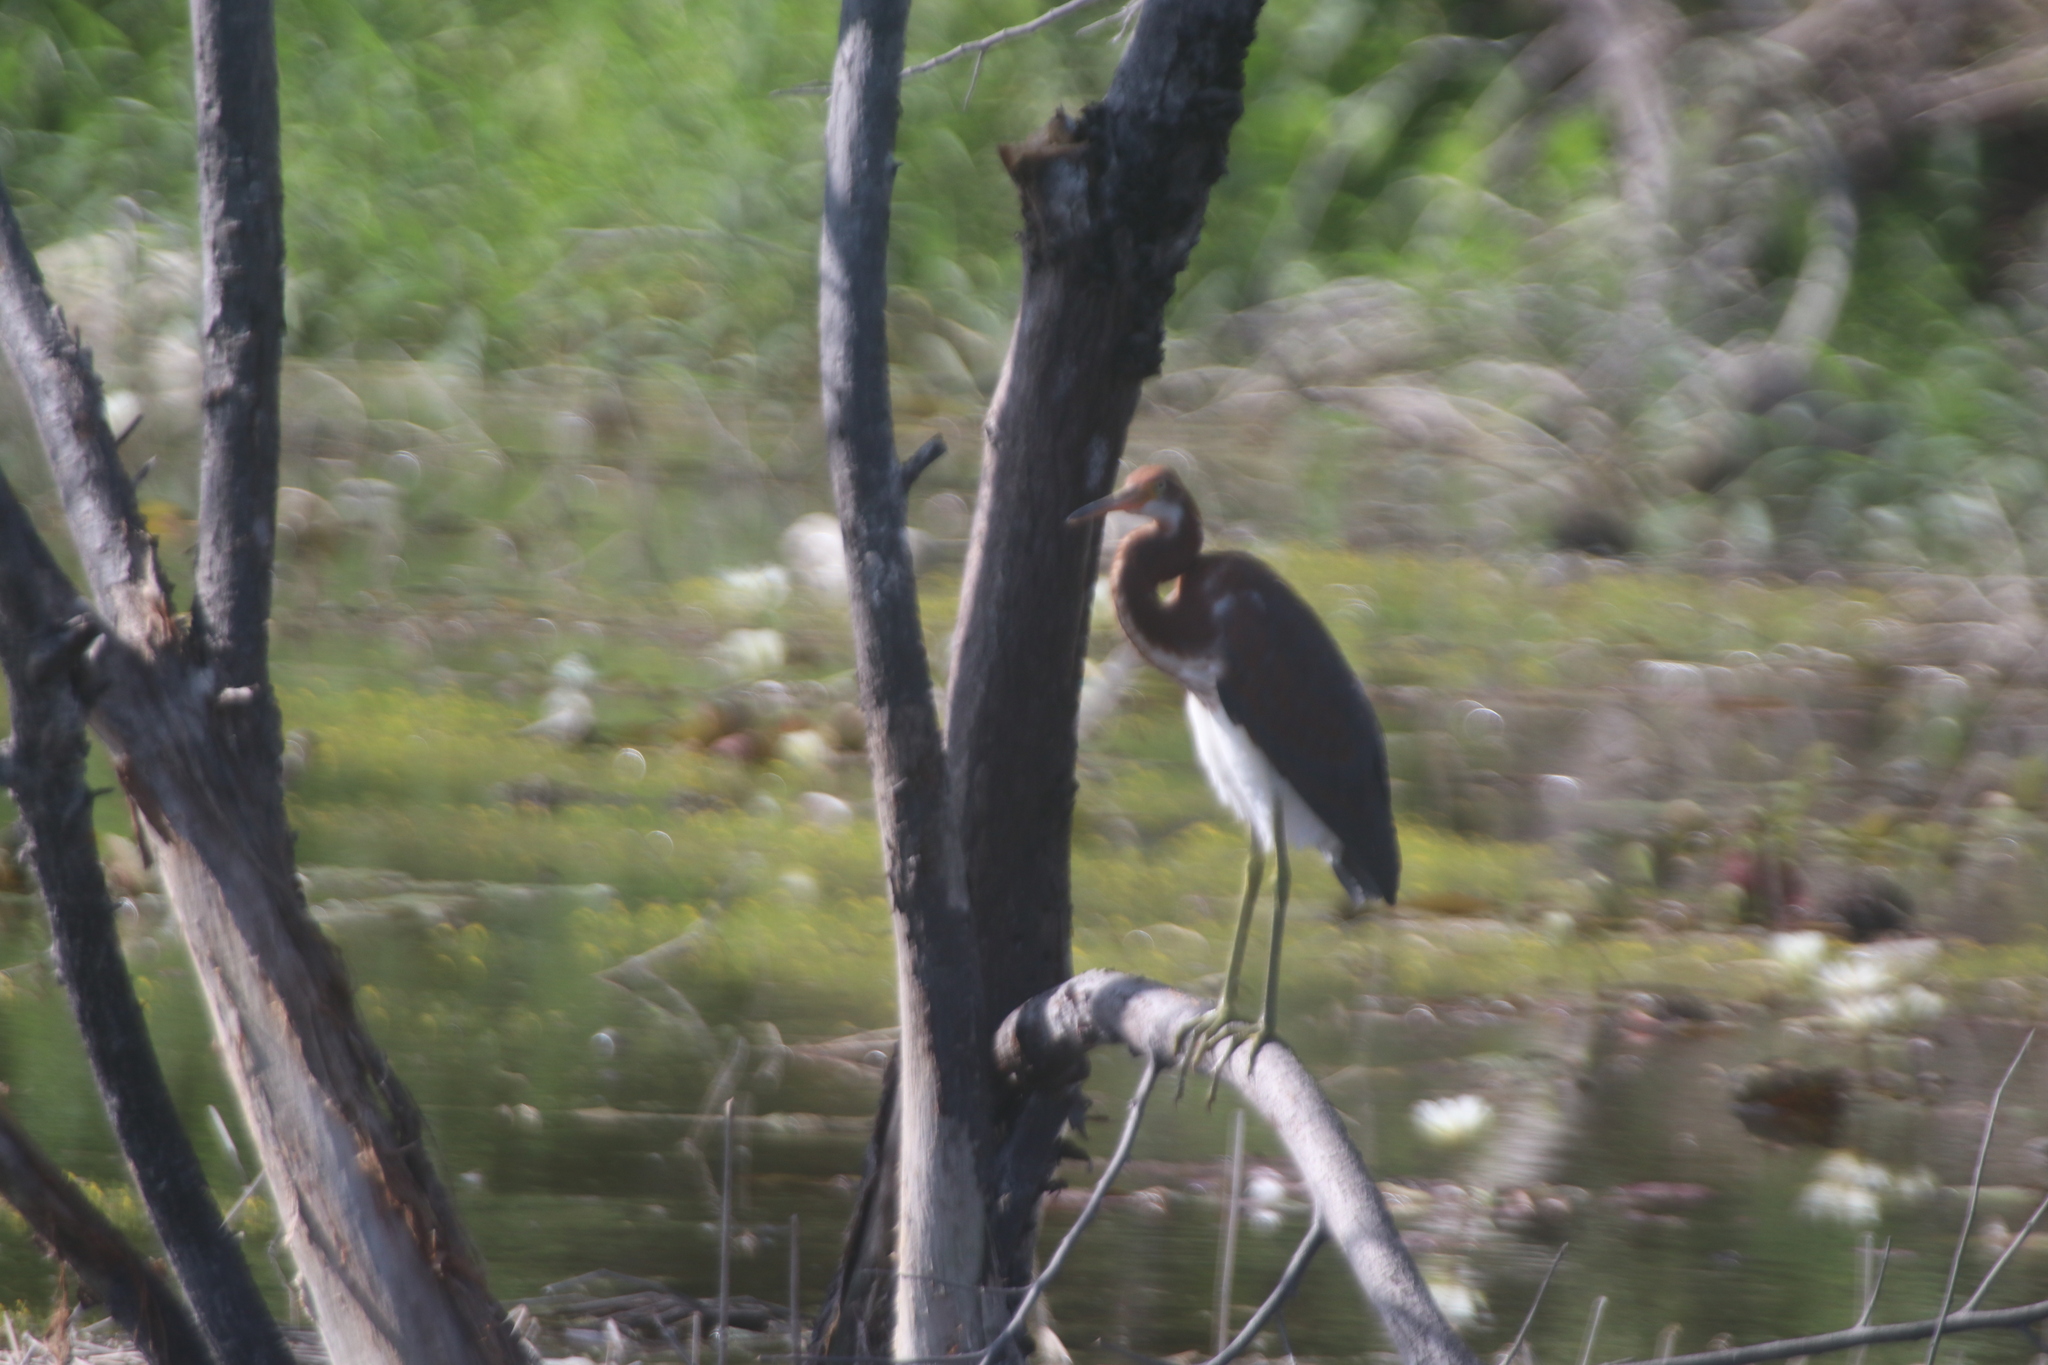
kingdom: Animalia
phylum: Chordata
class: Aves
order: Pelecaniformes
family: Ardeidae
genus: Egretta
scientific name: Egretta tricolor
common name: Tricolored heron
